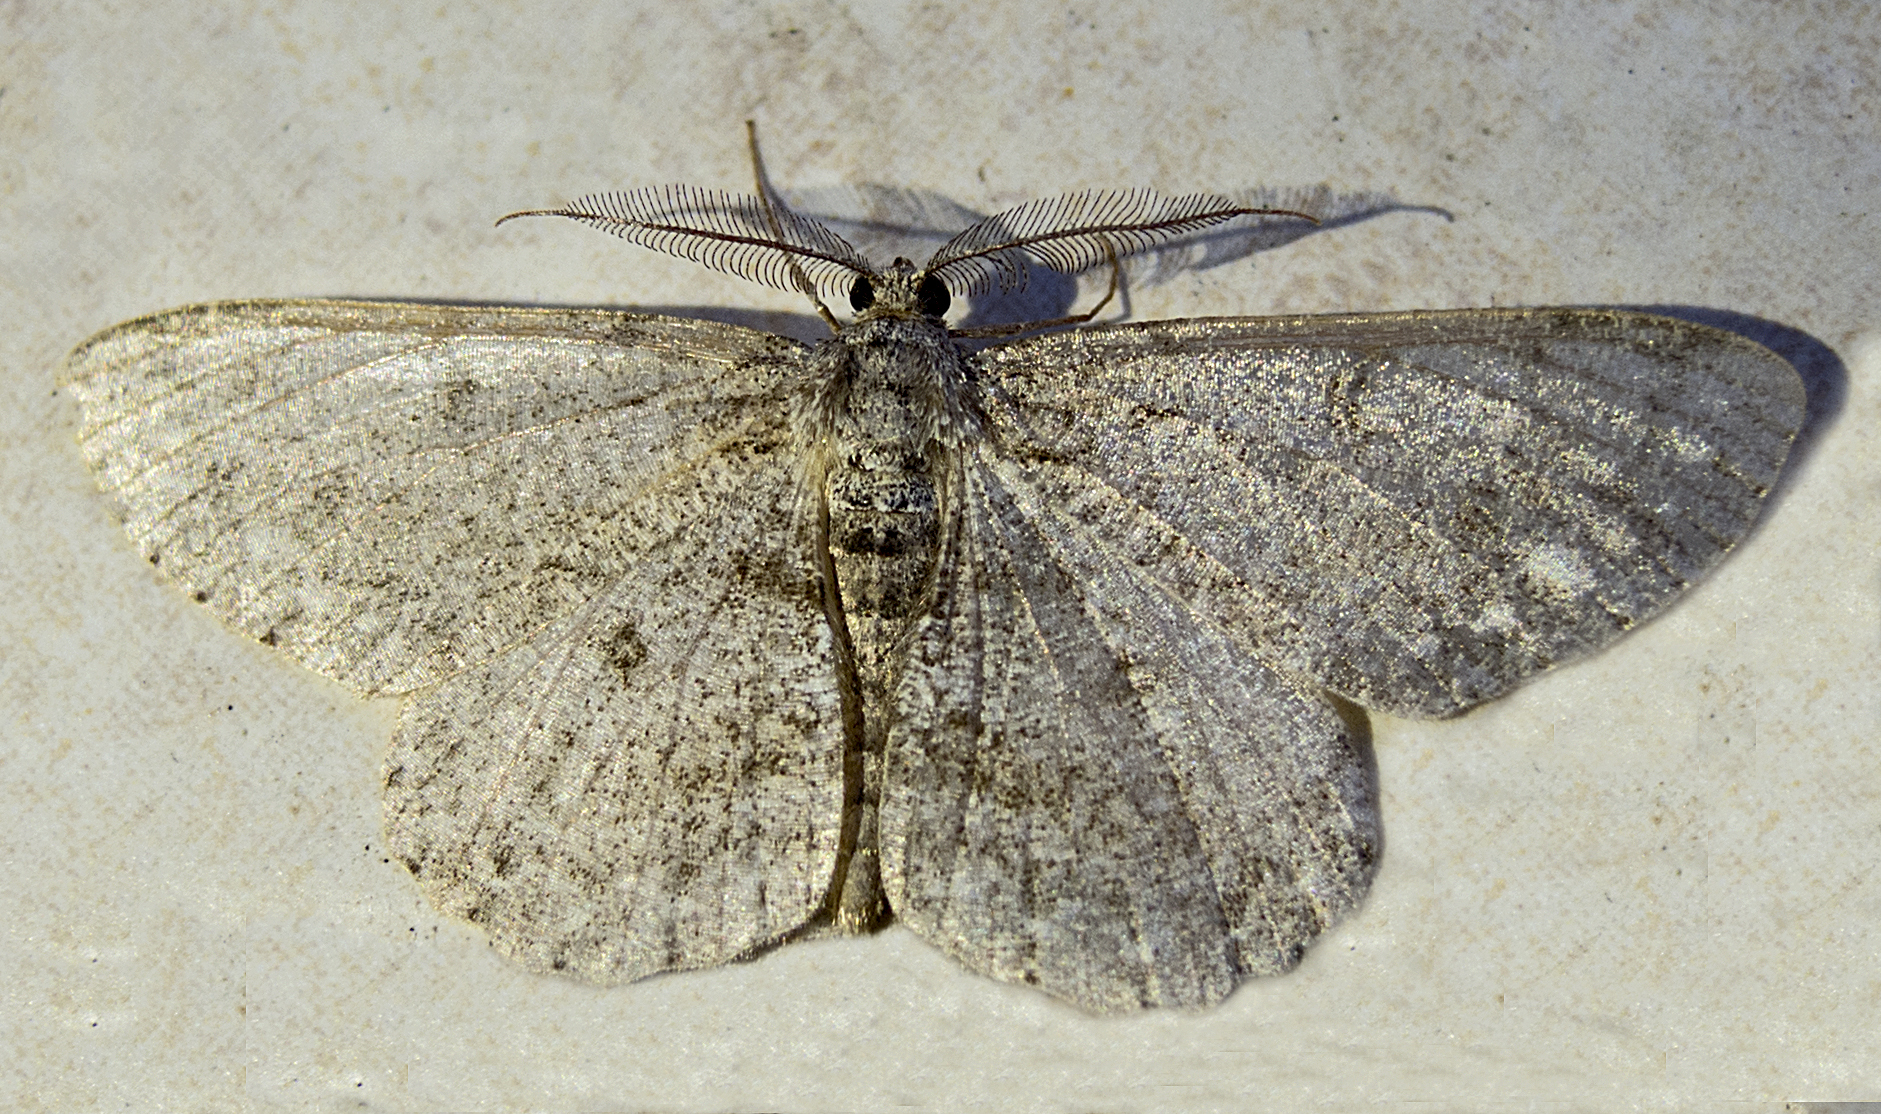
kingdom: Animalia
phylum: Arthropoda
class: Insecta
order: Lepidoptera
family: Geometridae
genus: Hypomecis
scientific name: Hypomecis punctinalis
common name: Pale oak beauty
